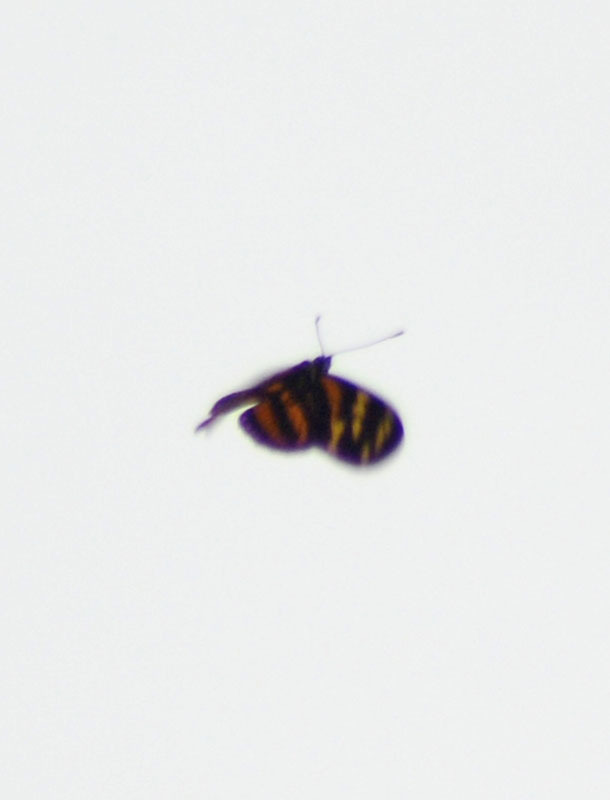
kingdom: Animalia
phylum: Arthropoda
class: Insecta
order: Lepidoptera
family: Nymphalidae
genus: Lycorea
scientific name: Lycorea eva
